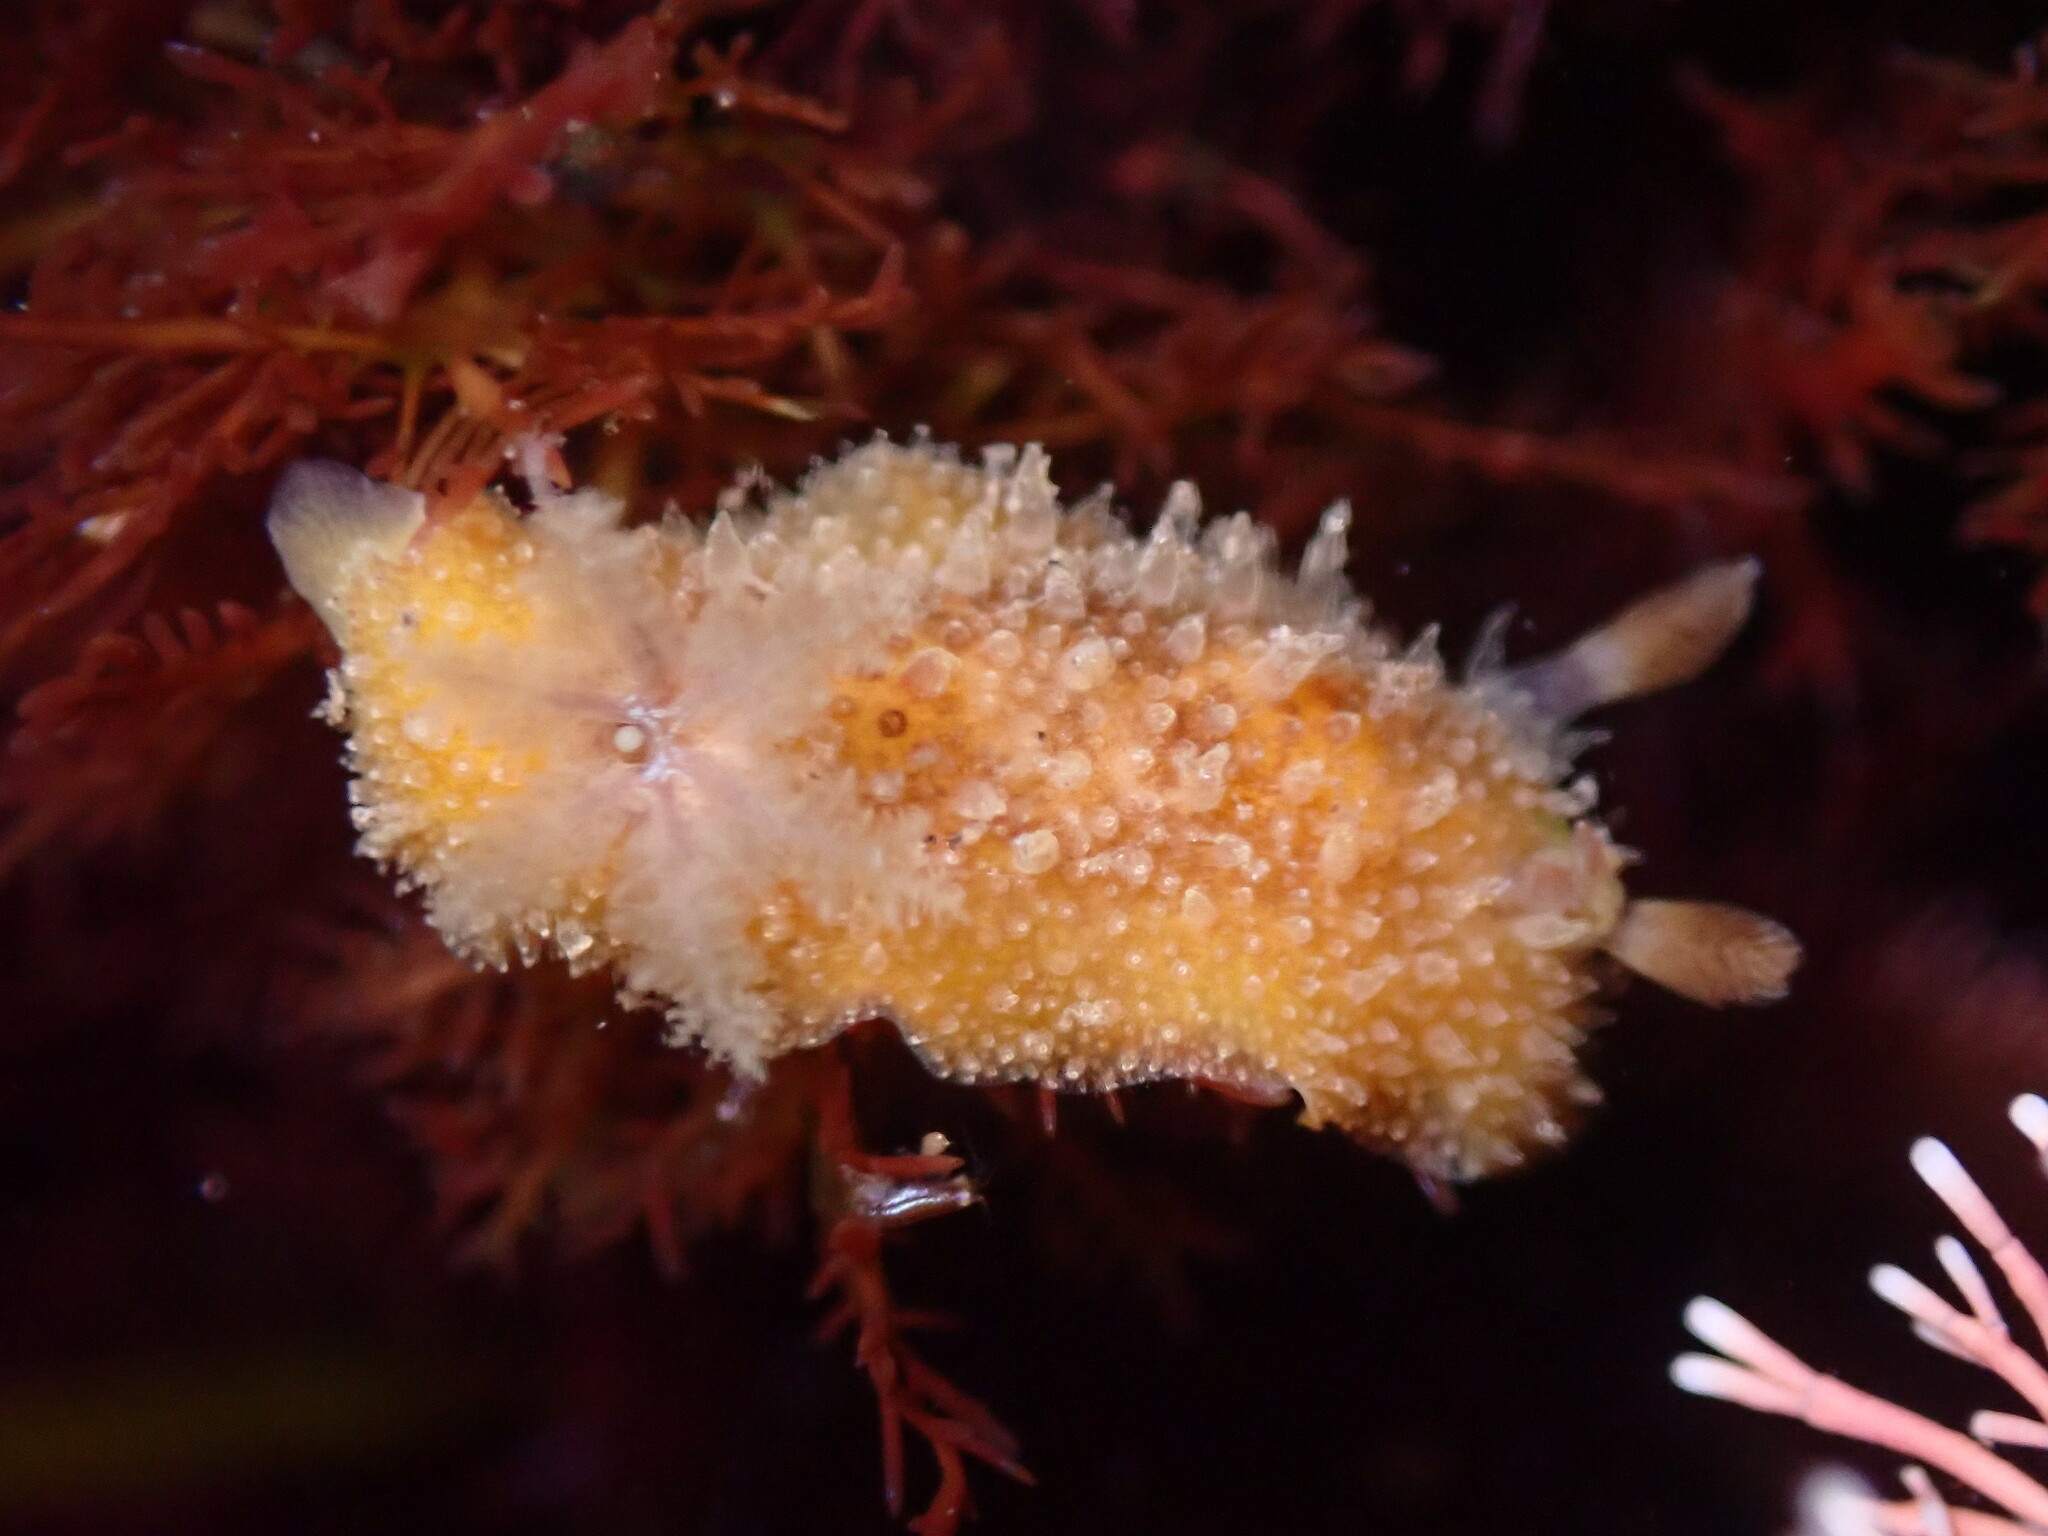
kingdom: Animalia
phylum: Mollusca
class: Gastropoda
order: Nudibranchia
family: Discodorididae
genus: Thordisa
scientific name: Thordisa bimaculata
